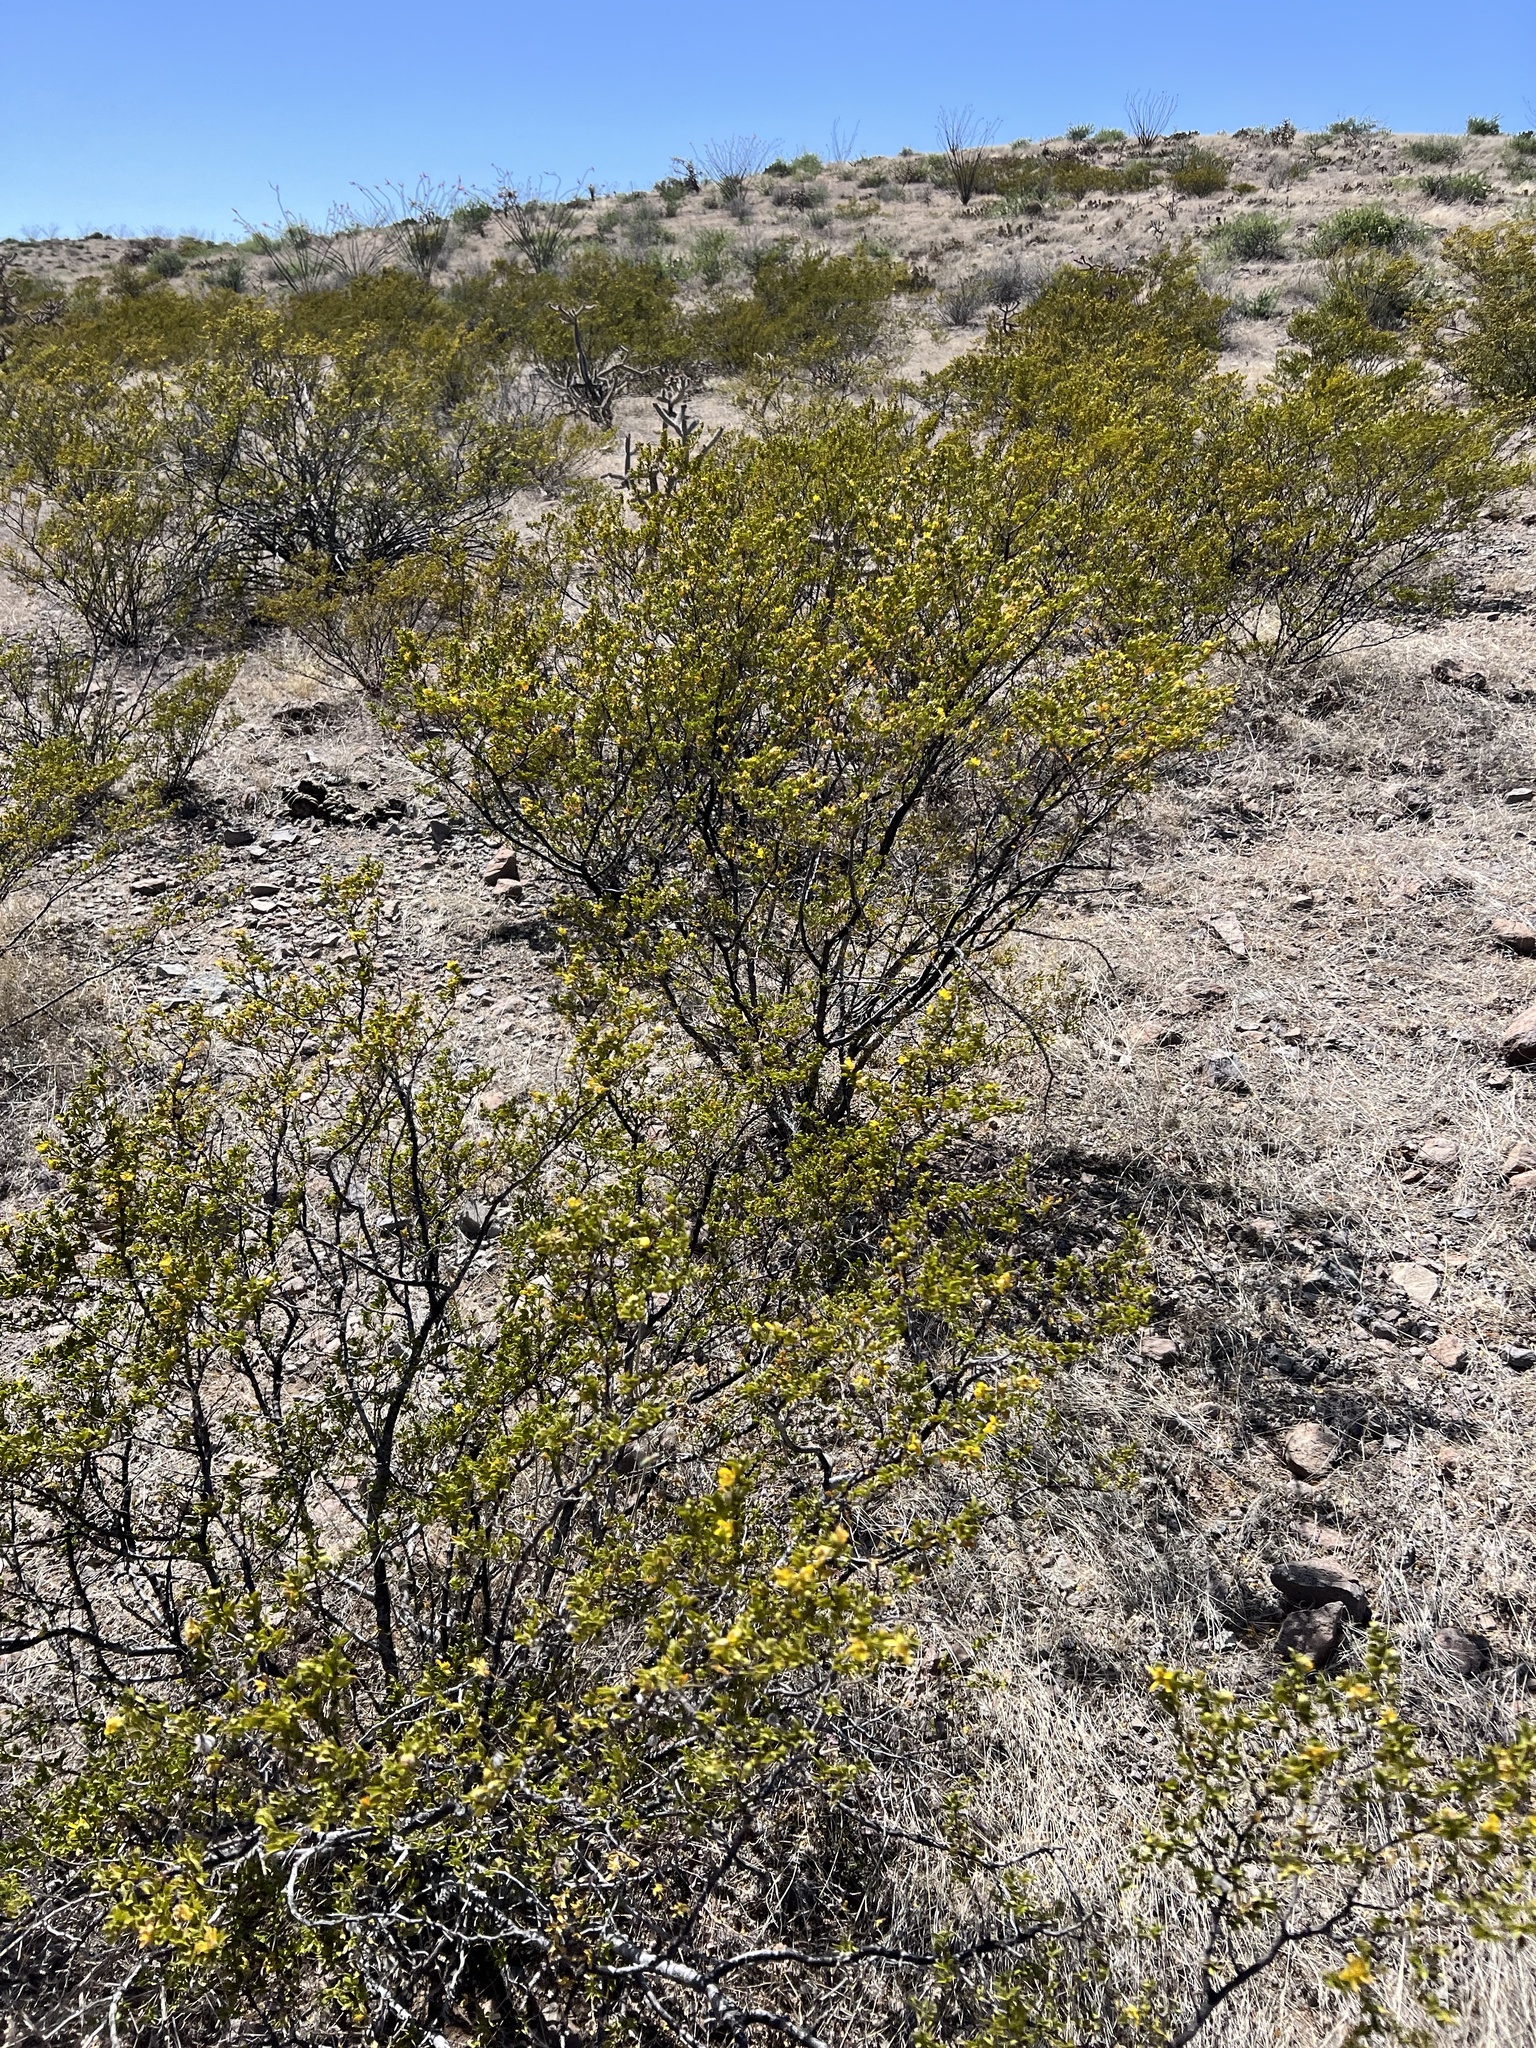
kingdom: Plantae
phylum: Tracheophyta
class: Magnoliopsida
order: Zygophyllales
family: Zygophyllaceae
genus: Larrea
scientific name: Larrea tridentata
